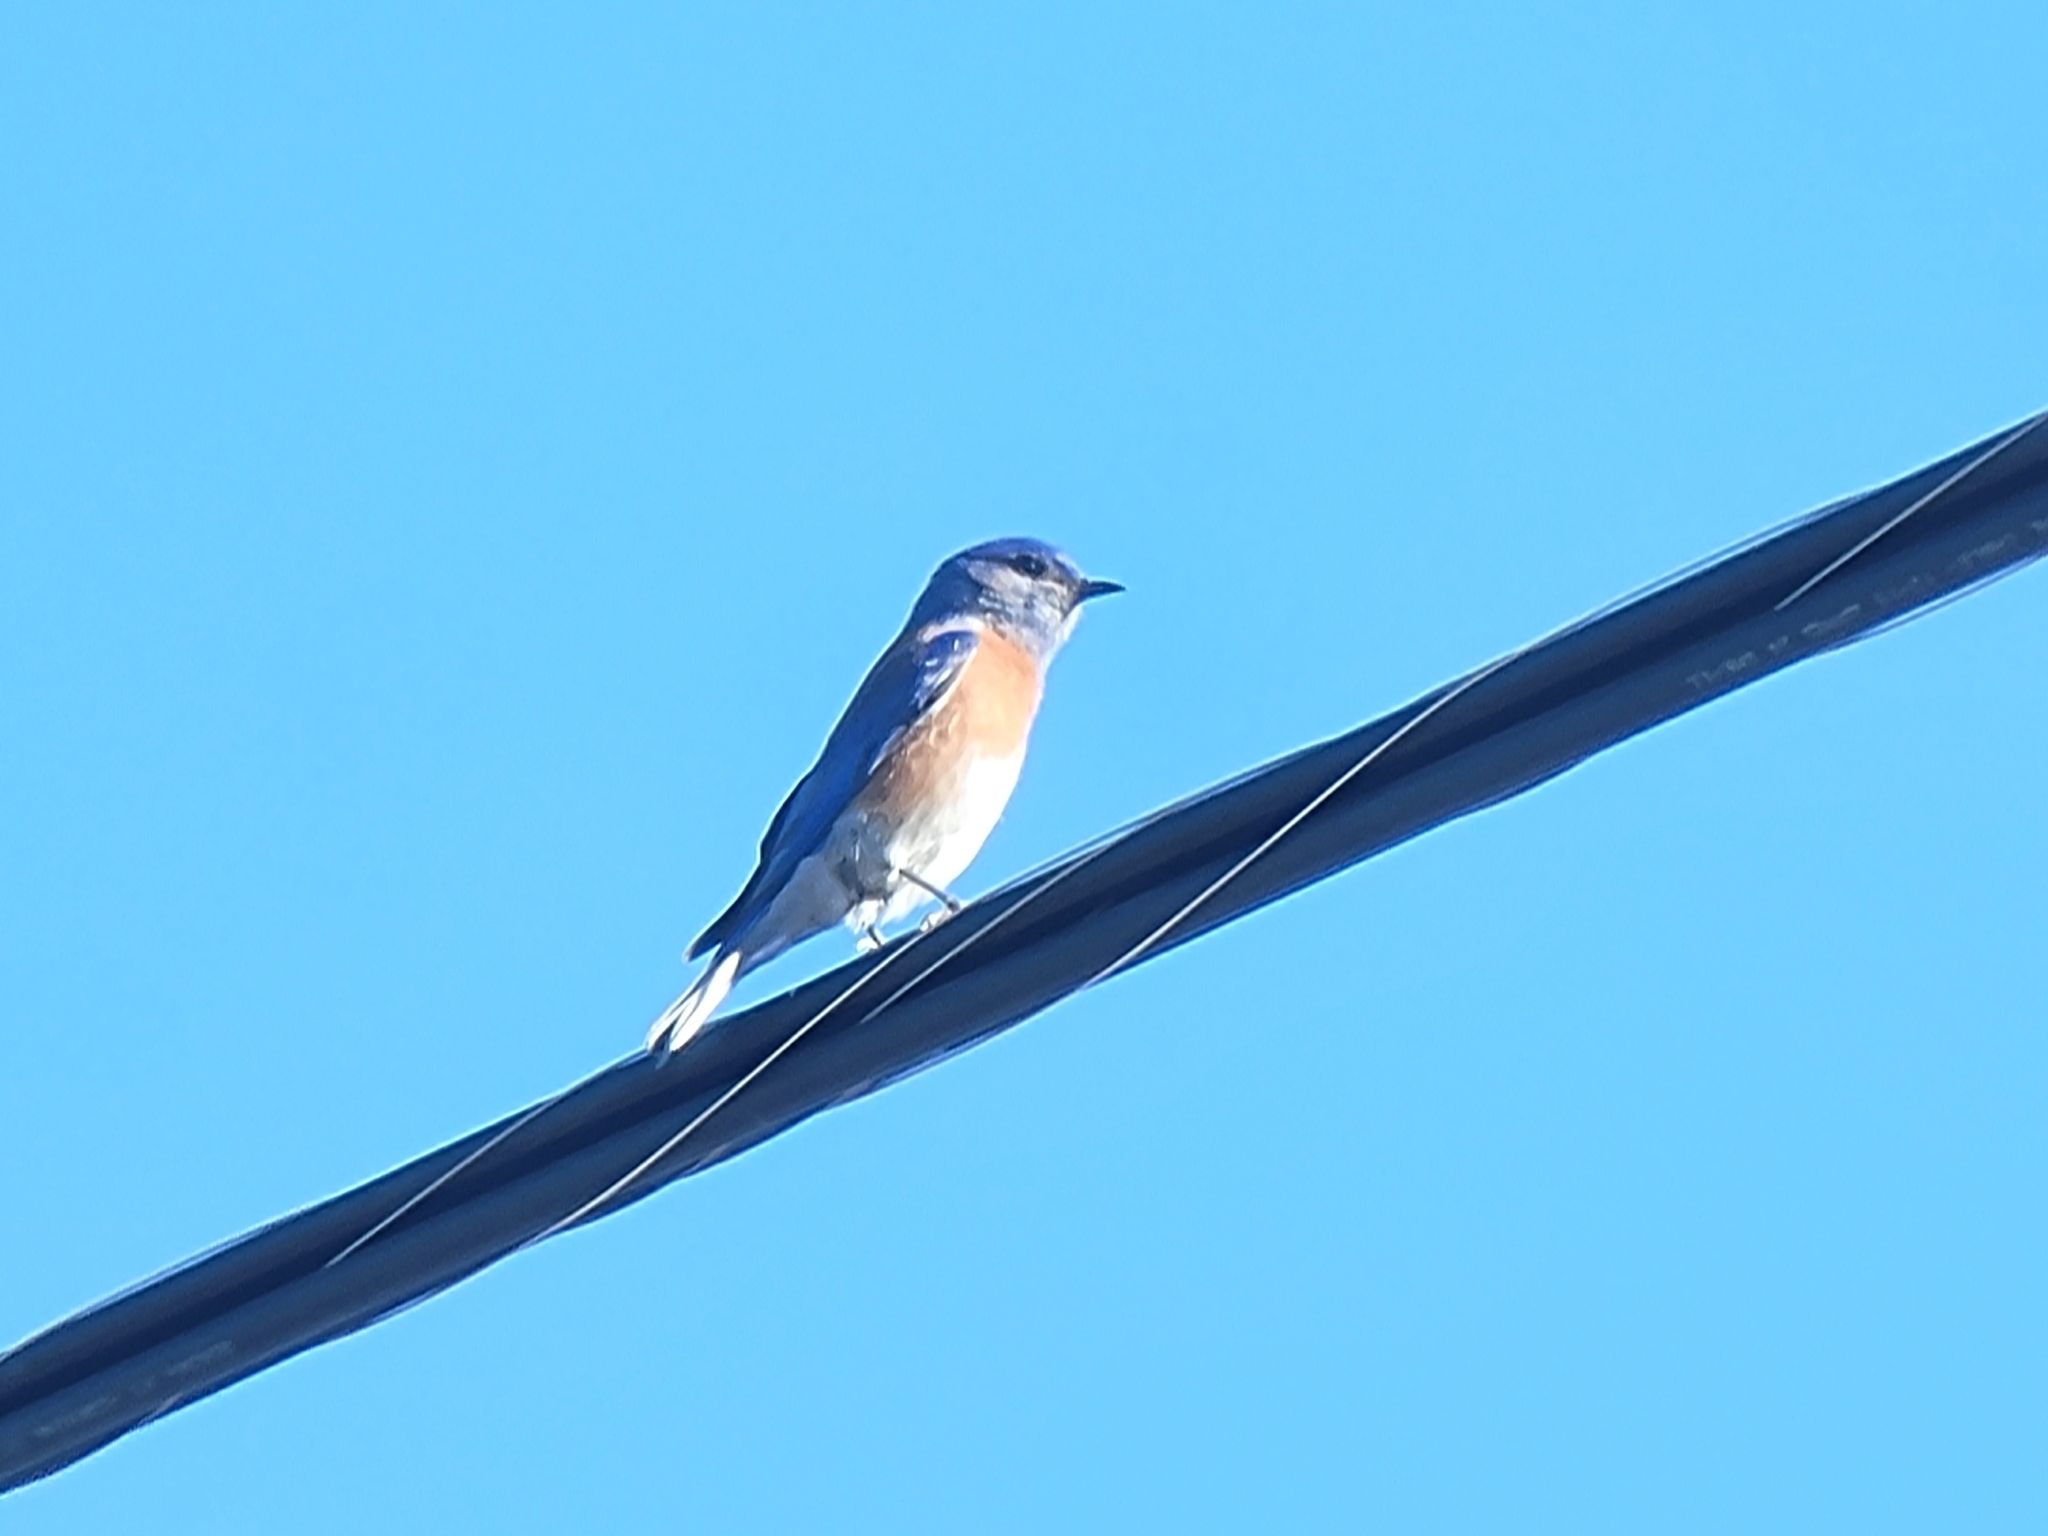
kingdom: Animalia
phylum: Chordata
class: Aves
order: Passeriformes
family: Turdidae
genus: Sialia
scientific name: Sialia mexicana
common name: Western bluebird
